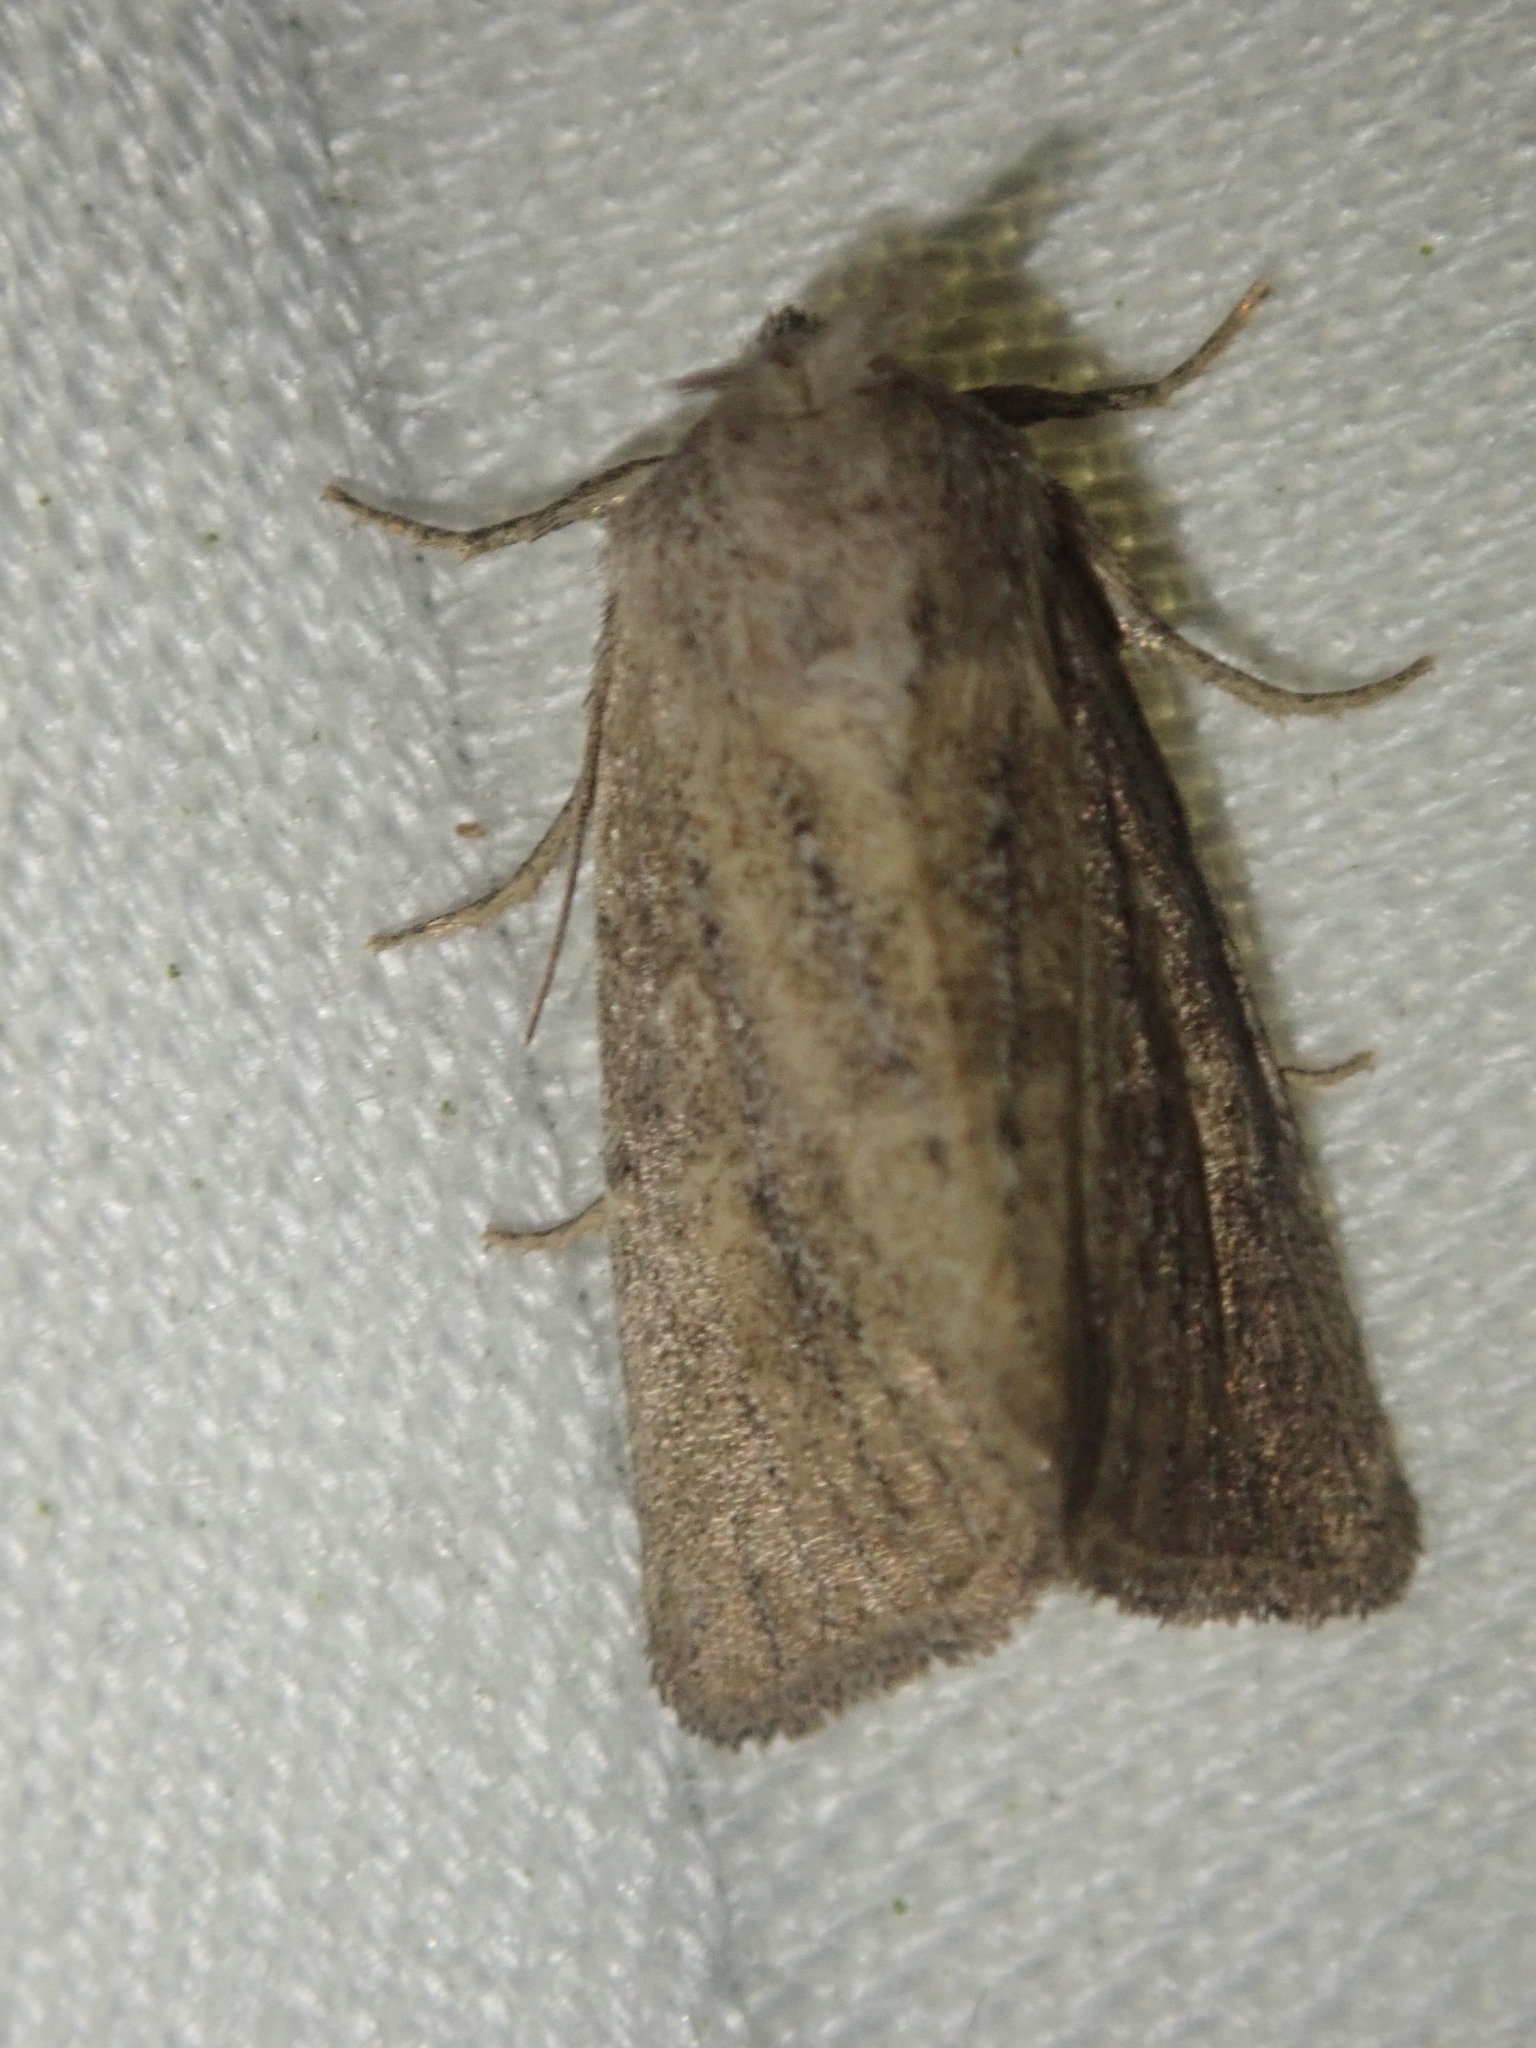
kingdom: Animalia
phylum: Arthropoda
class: Insecta
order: Lepidoptera
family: Noctuidae
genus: Photedes
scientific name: Photedes fluxa
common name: Mere wainscot
